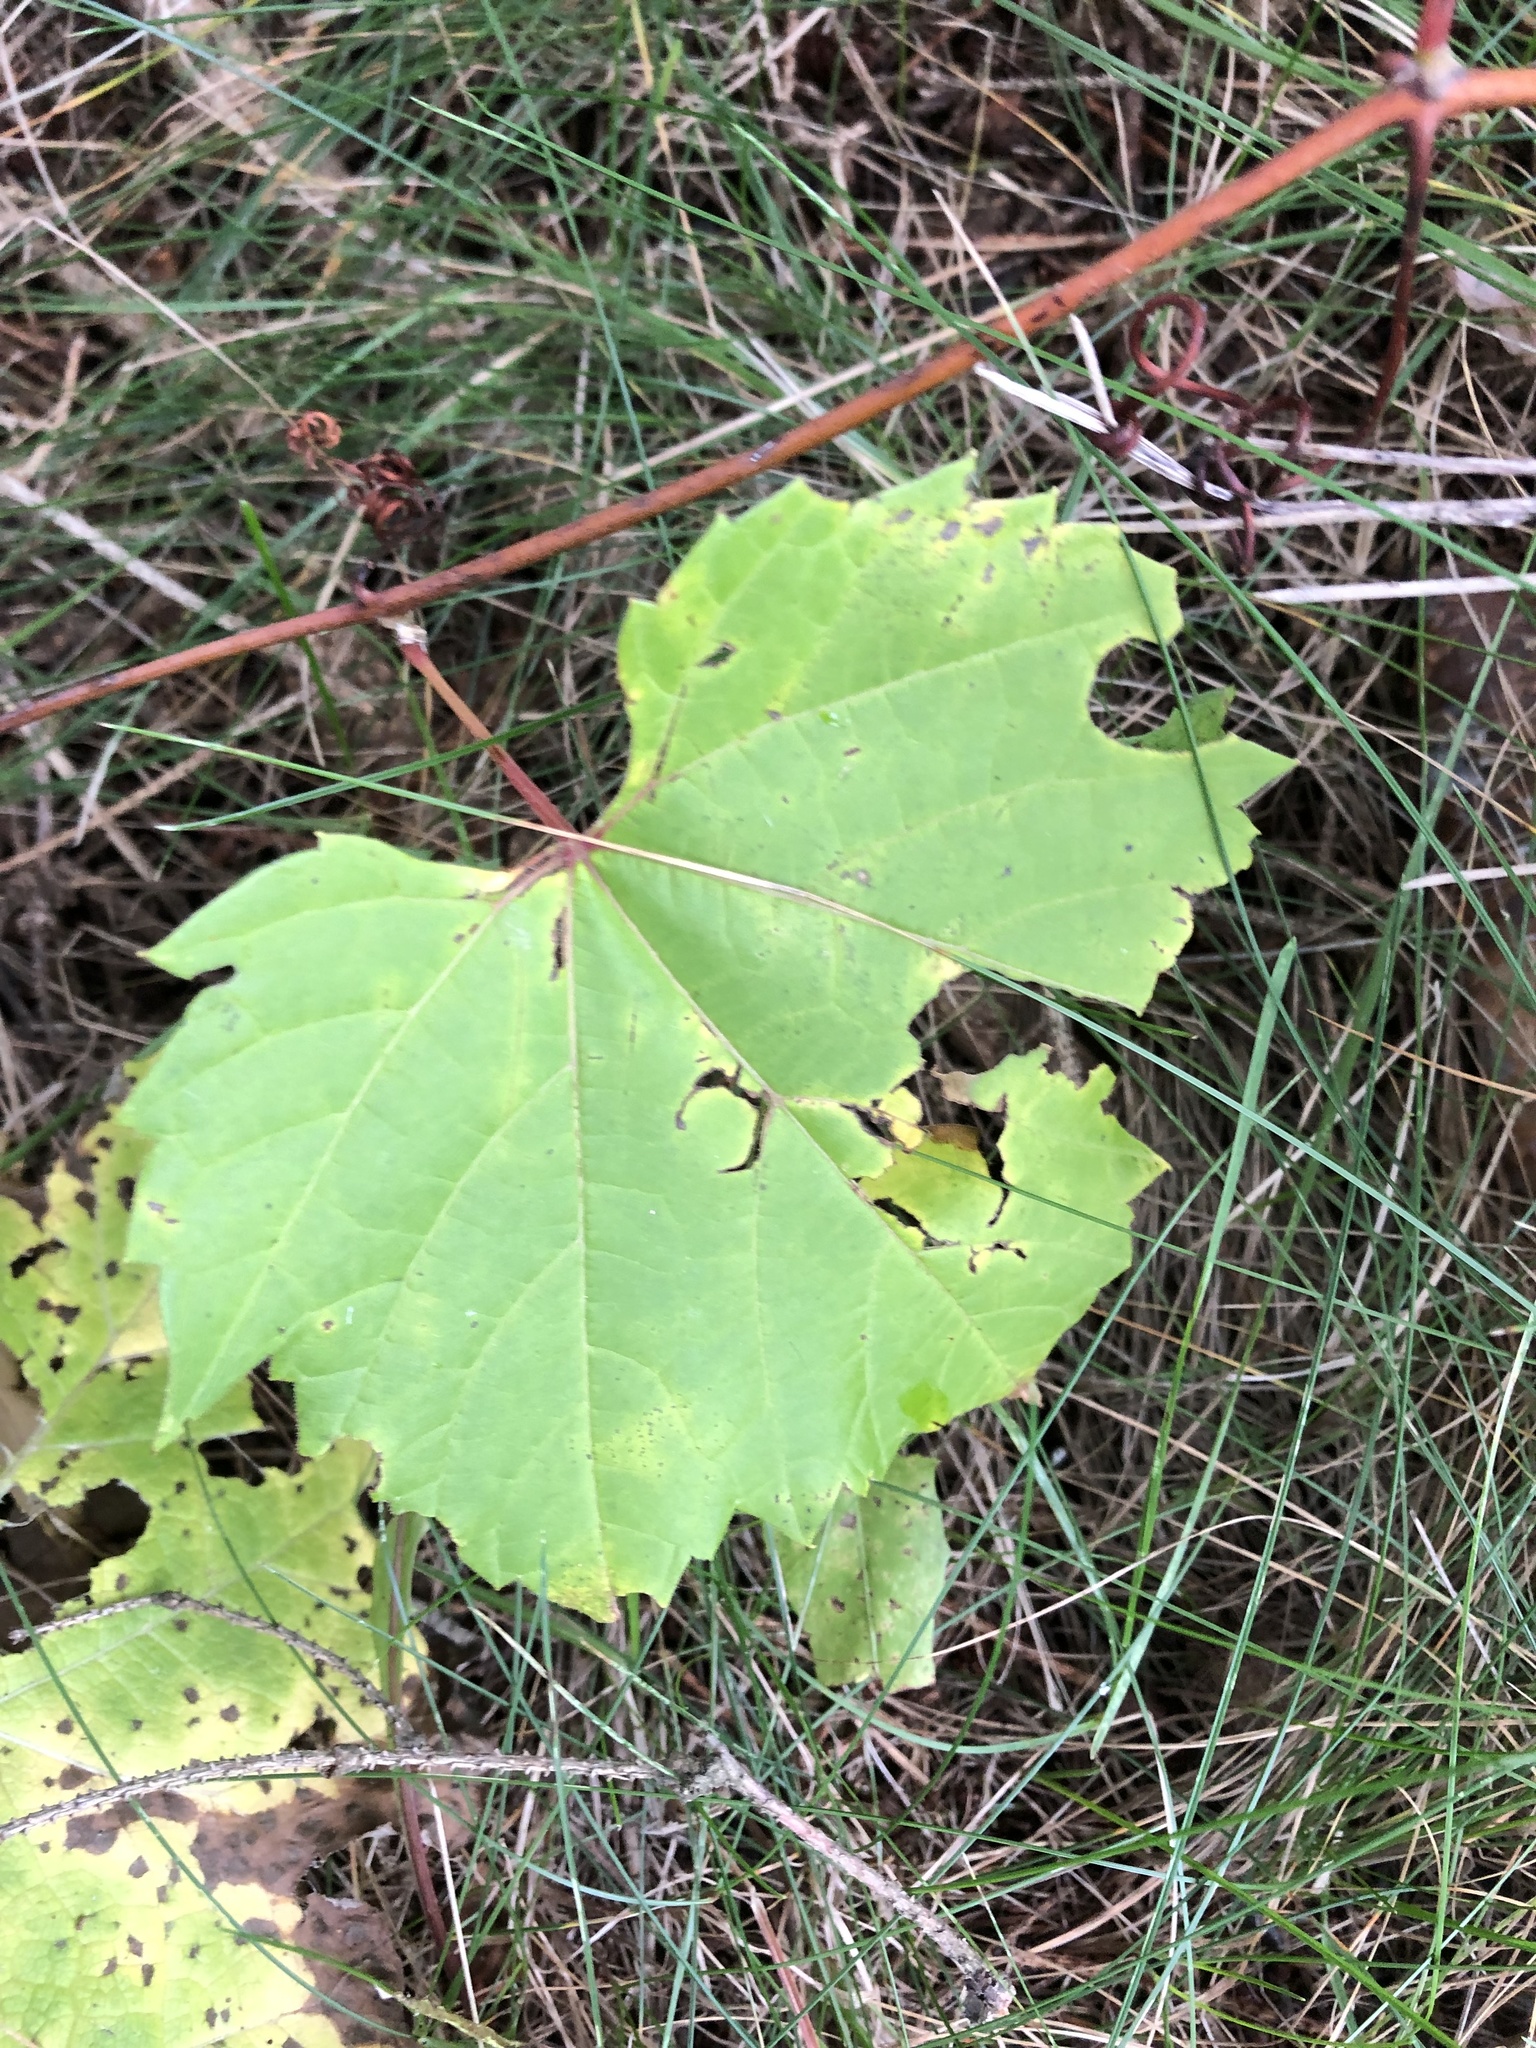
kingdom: Plantae
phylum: Tracheophyta
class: Magnoliopsida
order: Vitales
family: Vitaceae
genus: Vitis
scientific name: Vitis riparia
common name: Frost grape
